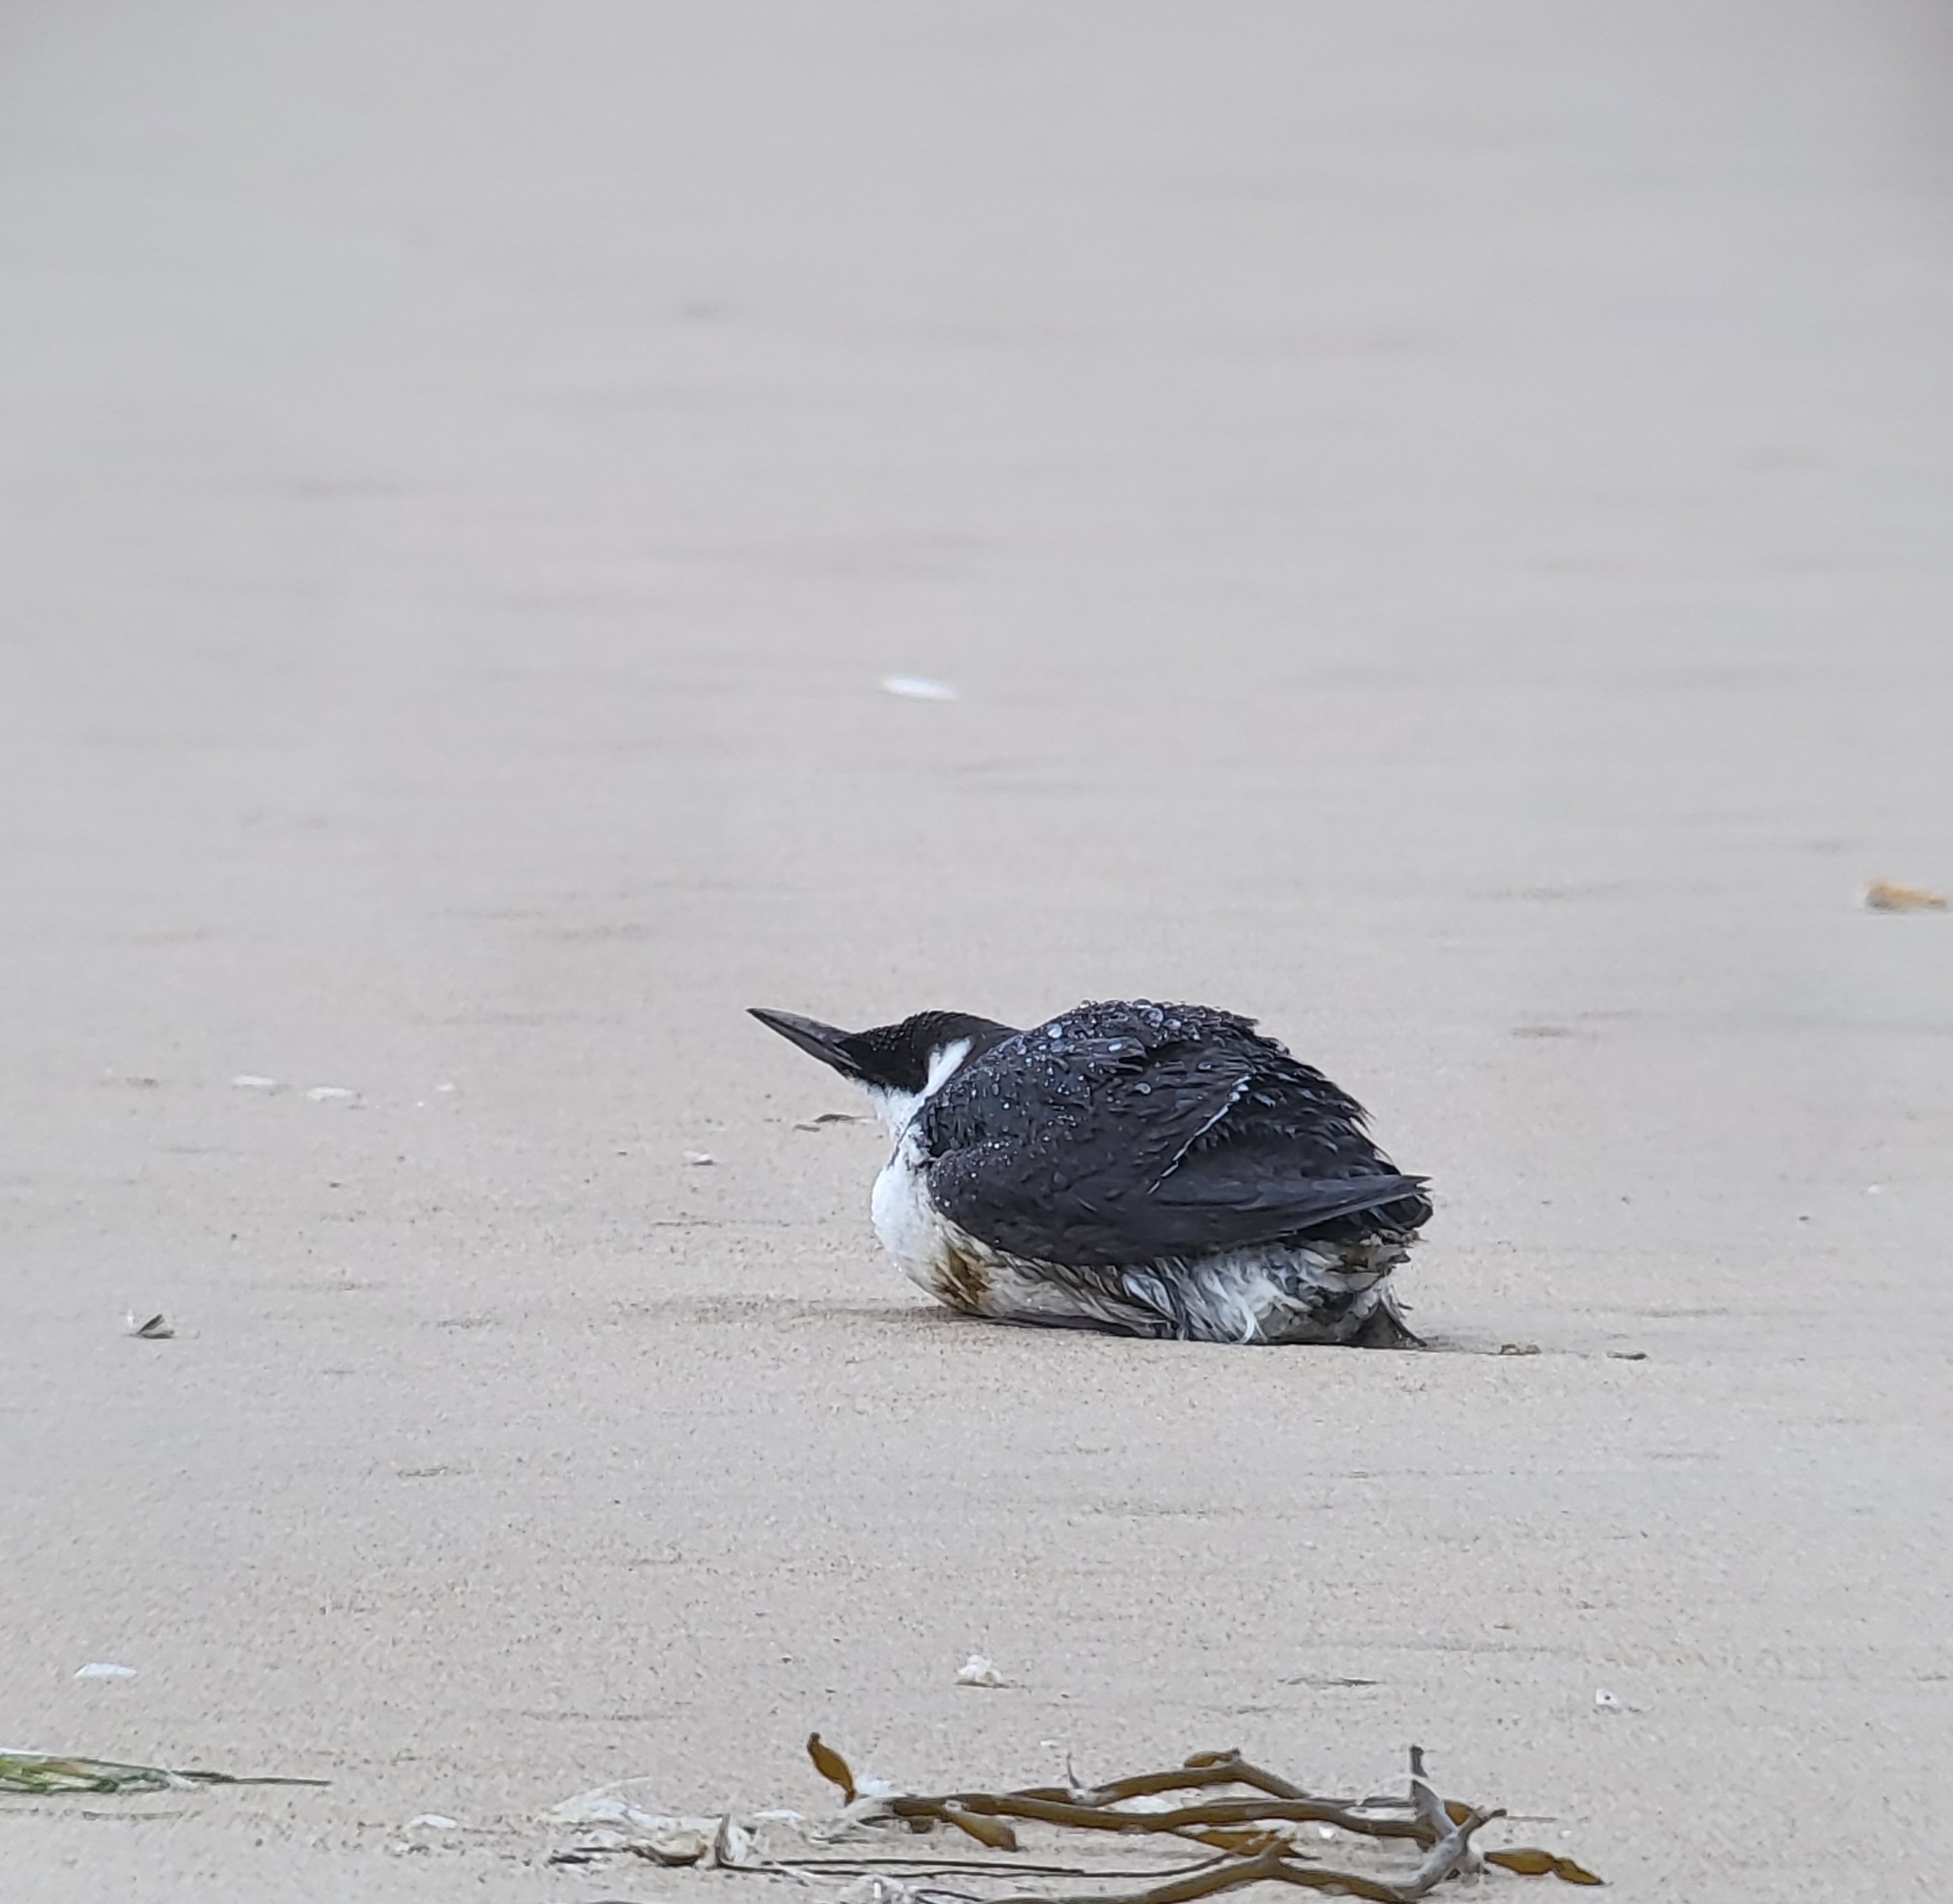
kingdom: Animalia
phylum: Chordata
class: Aves
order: Charadriiformes
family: Alcidae
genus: Uria
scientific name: Uria aalge
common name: Common murre
